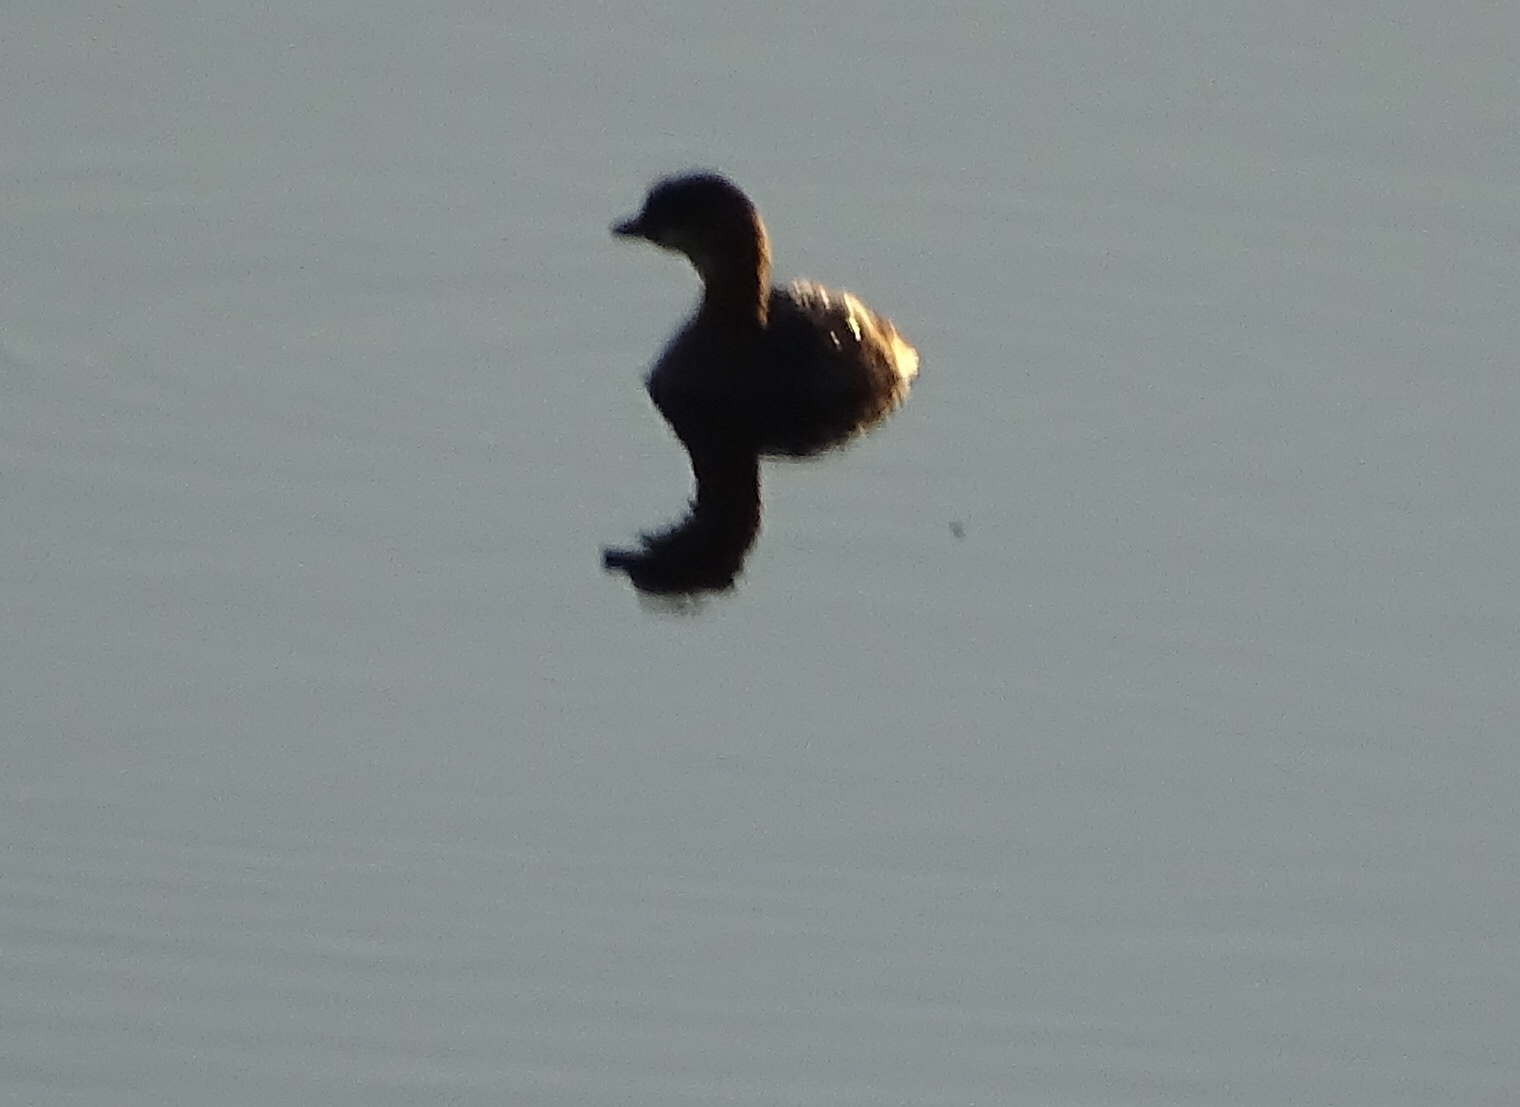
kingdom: Animalia
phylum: Chordata
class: Aves
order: Podicipediformes
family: Podicipedidae
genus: Podilymbus
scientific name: Podilymbus podiceps
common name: Pied-billed grebe
